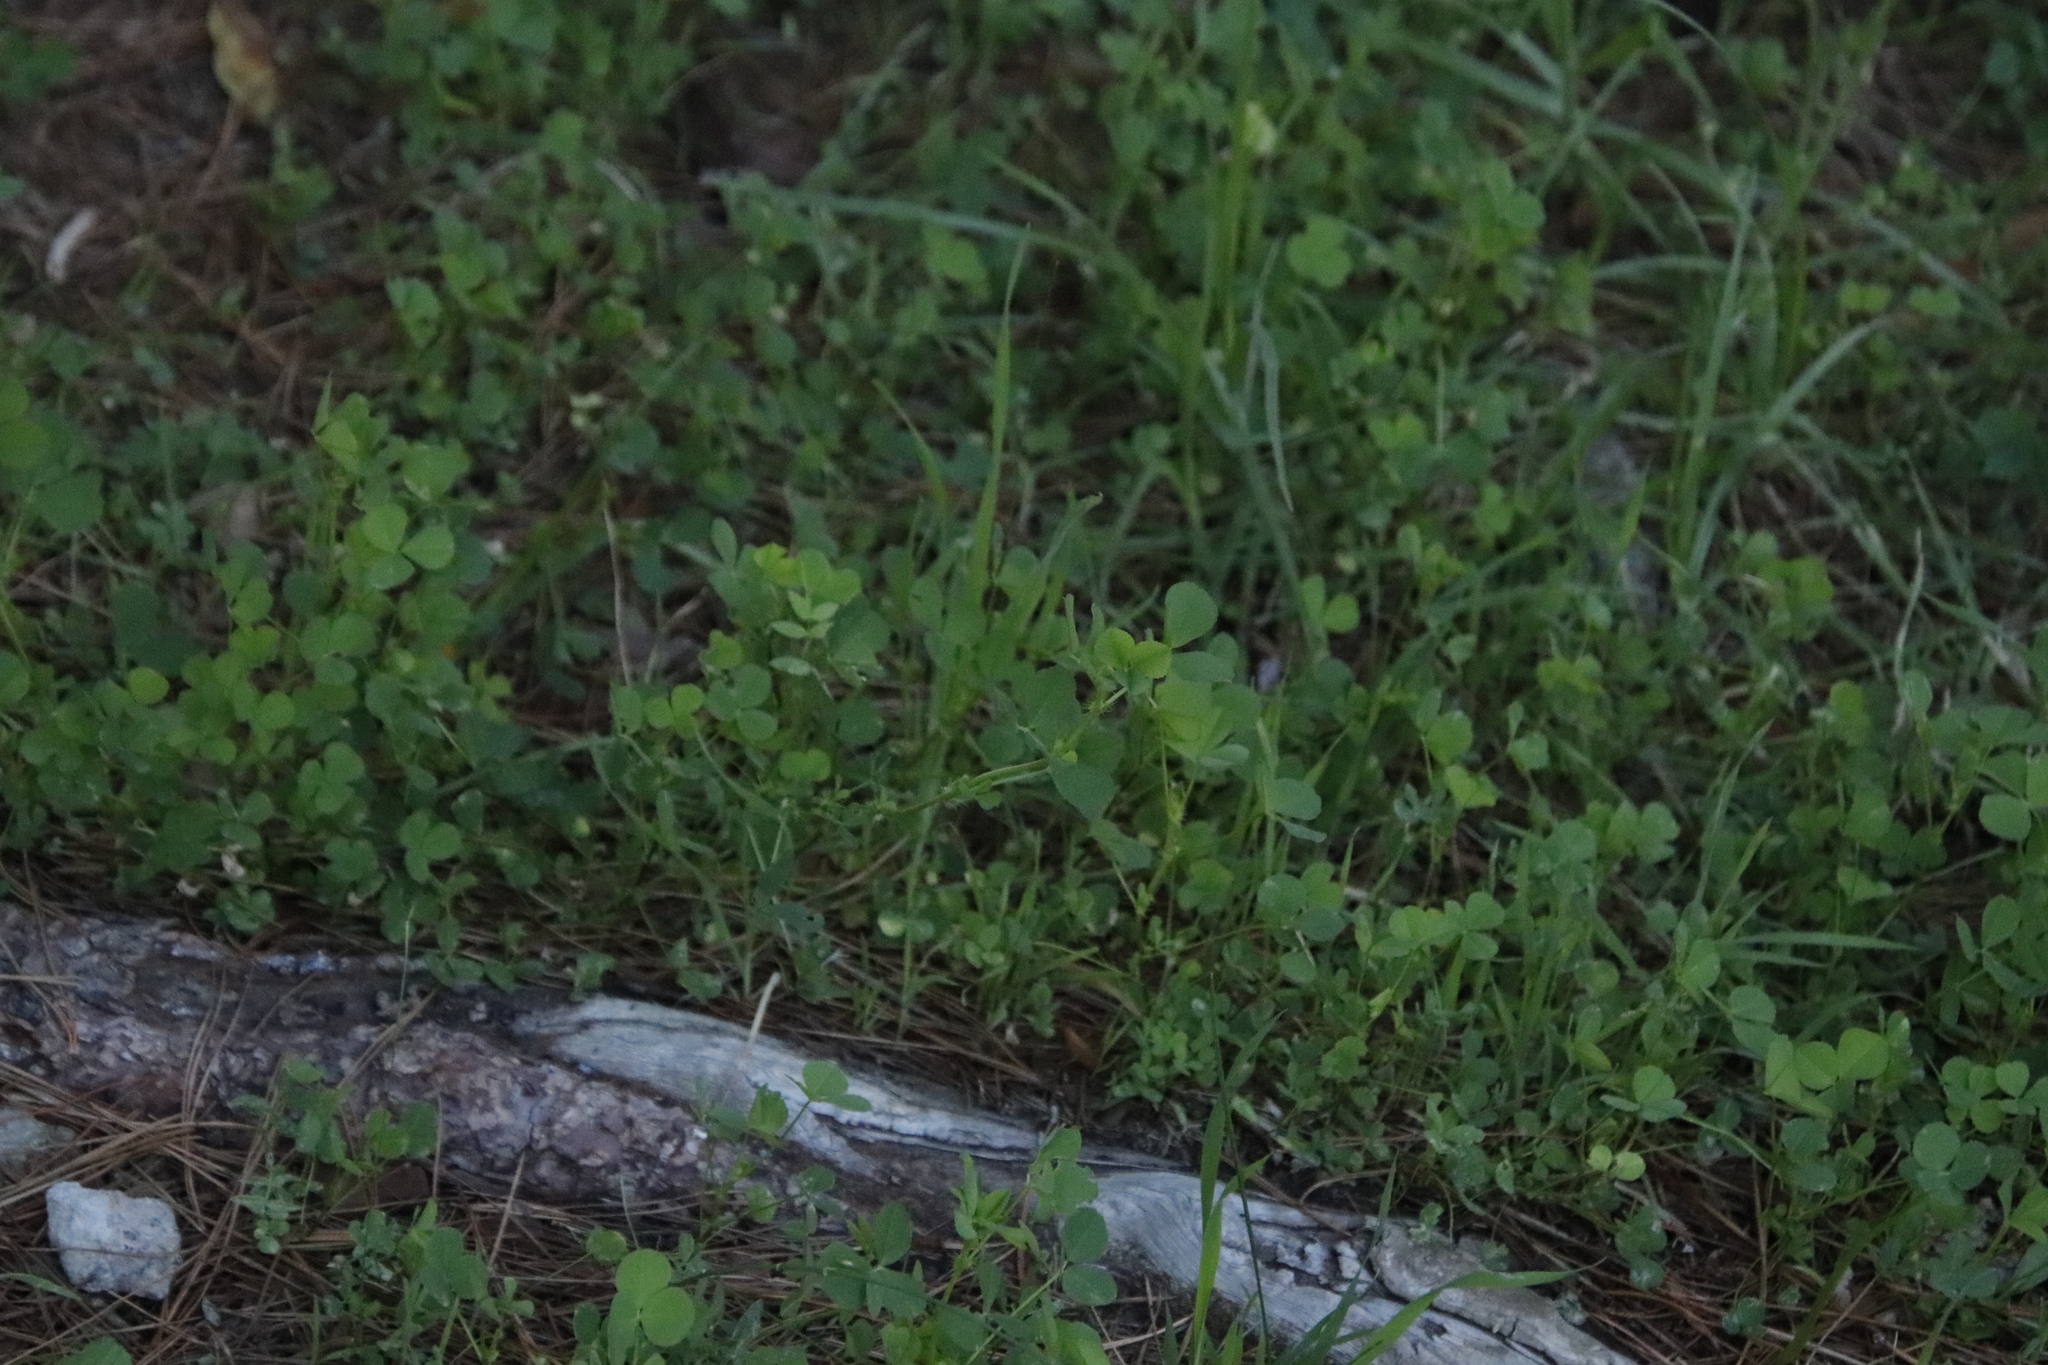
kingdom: Plantae
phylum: Tracheophyta
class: Magnoliopsida
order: Fabales
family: Fabaceae
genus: Medicago
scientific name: Medicago polymorpha
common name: Burclover
